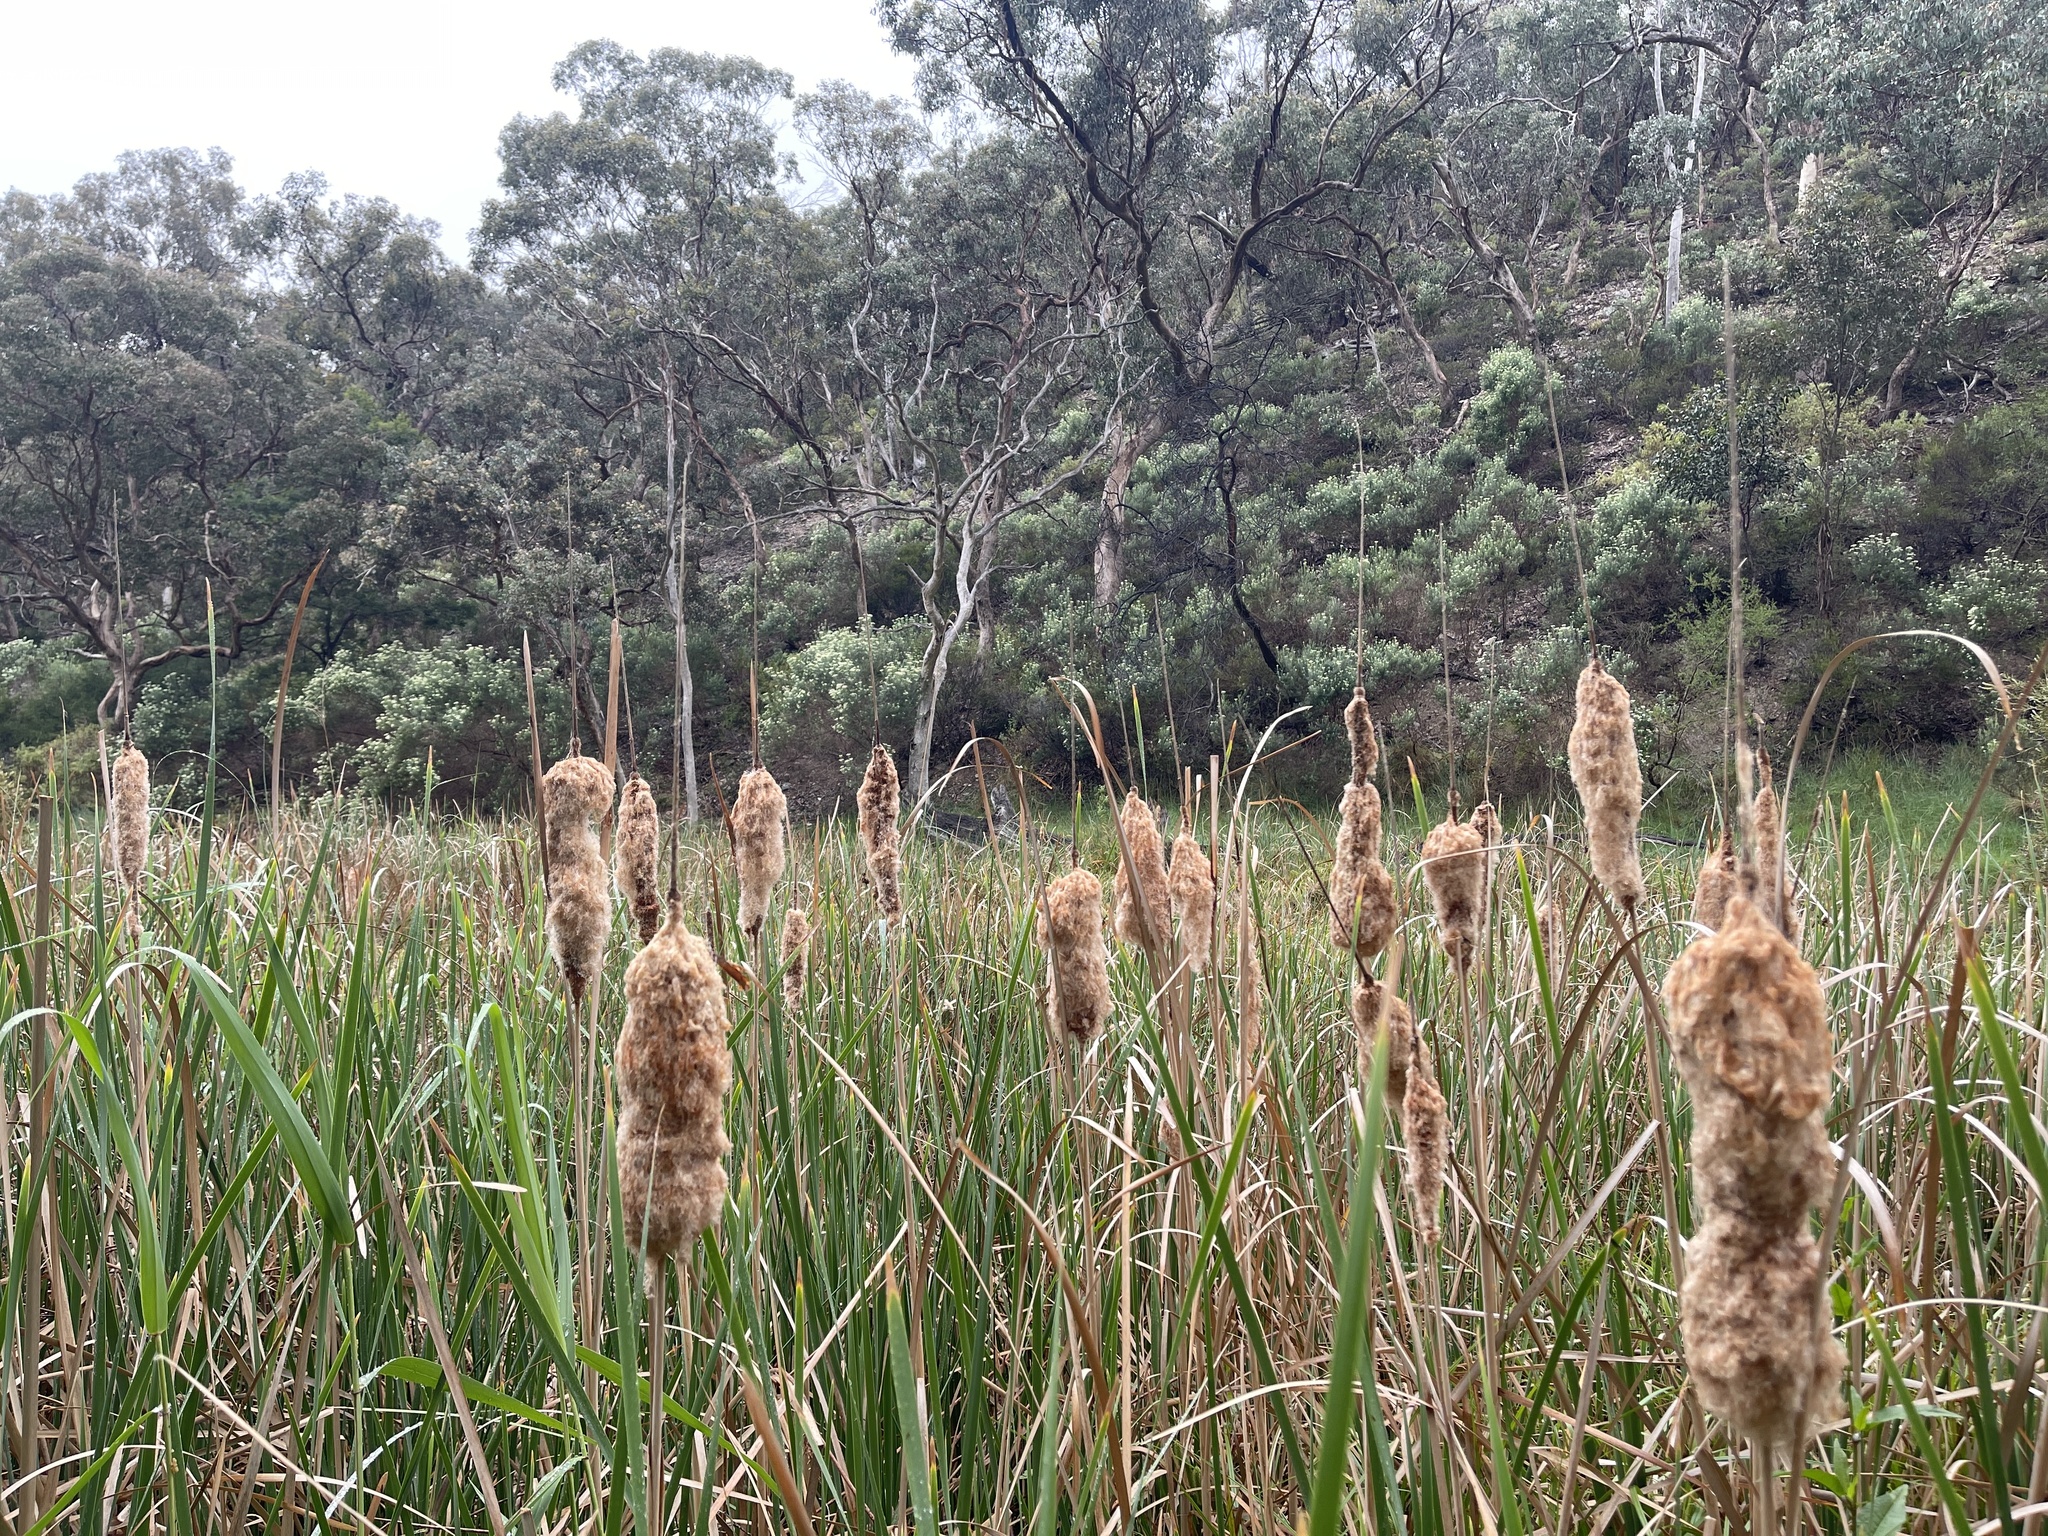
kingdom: Plantae
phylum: Tracheophyta
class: Liliopsida
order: Poales
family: Typhaceae
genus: Typha
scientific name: Typha domingensis
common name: Southern cattail
